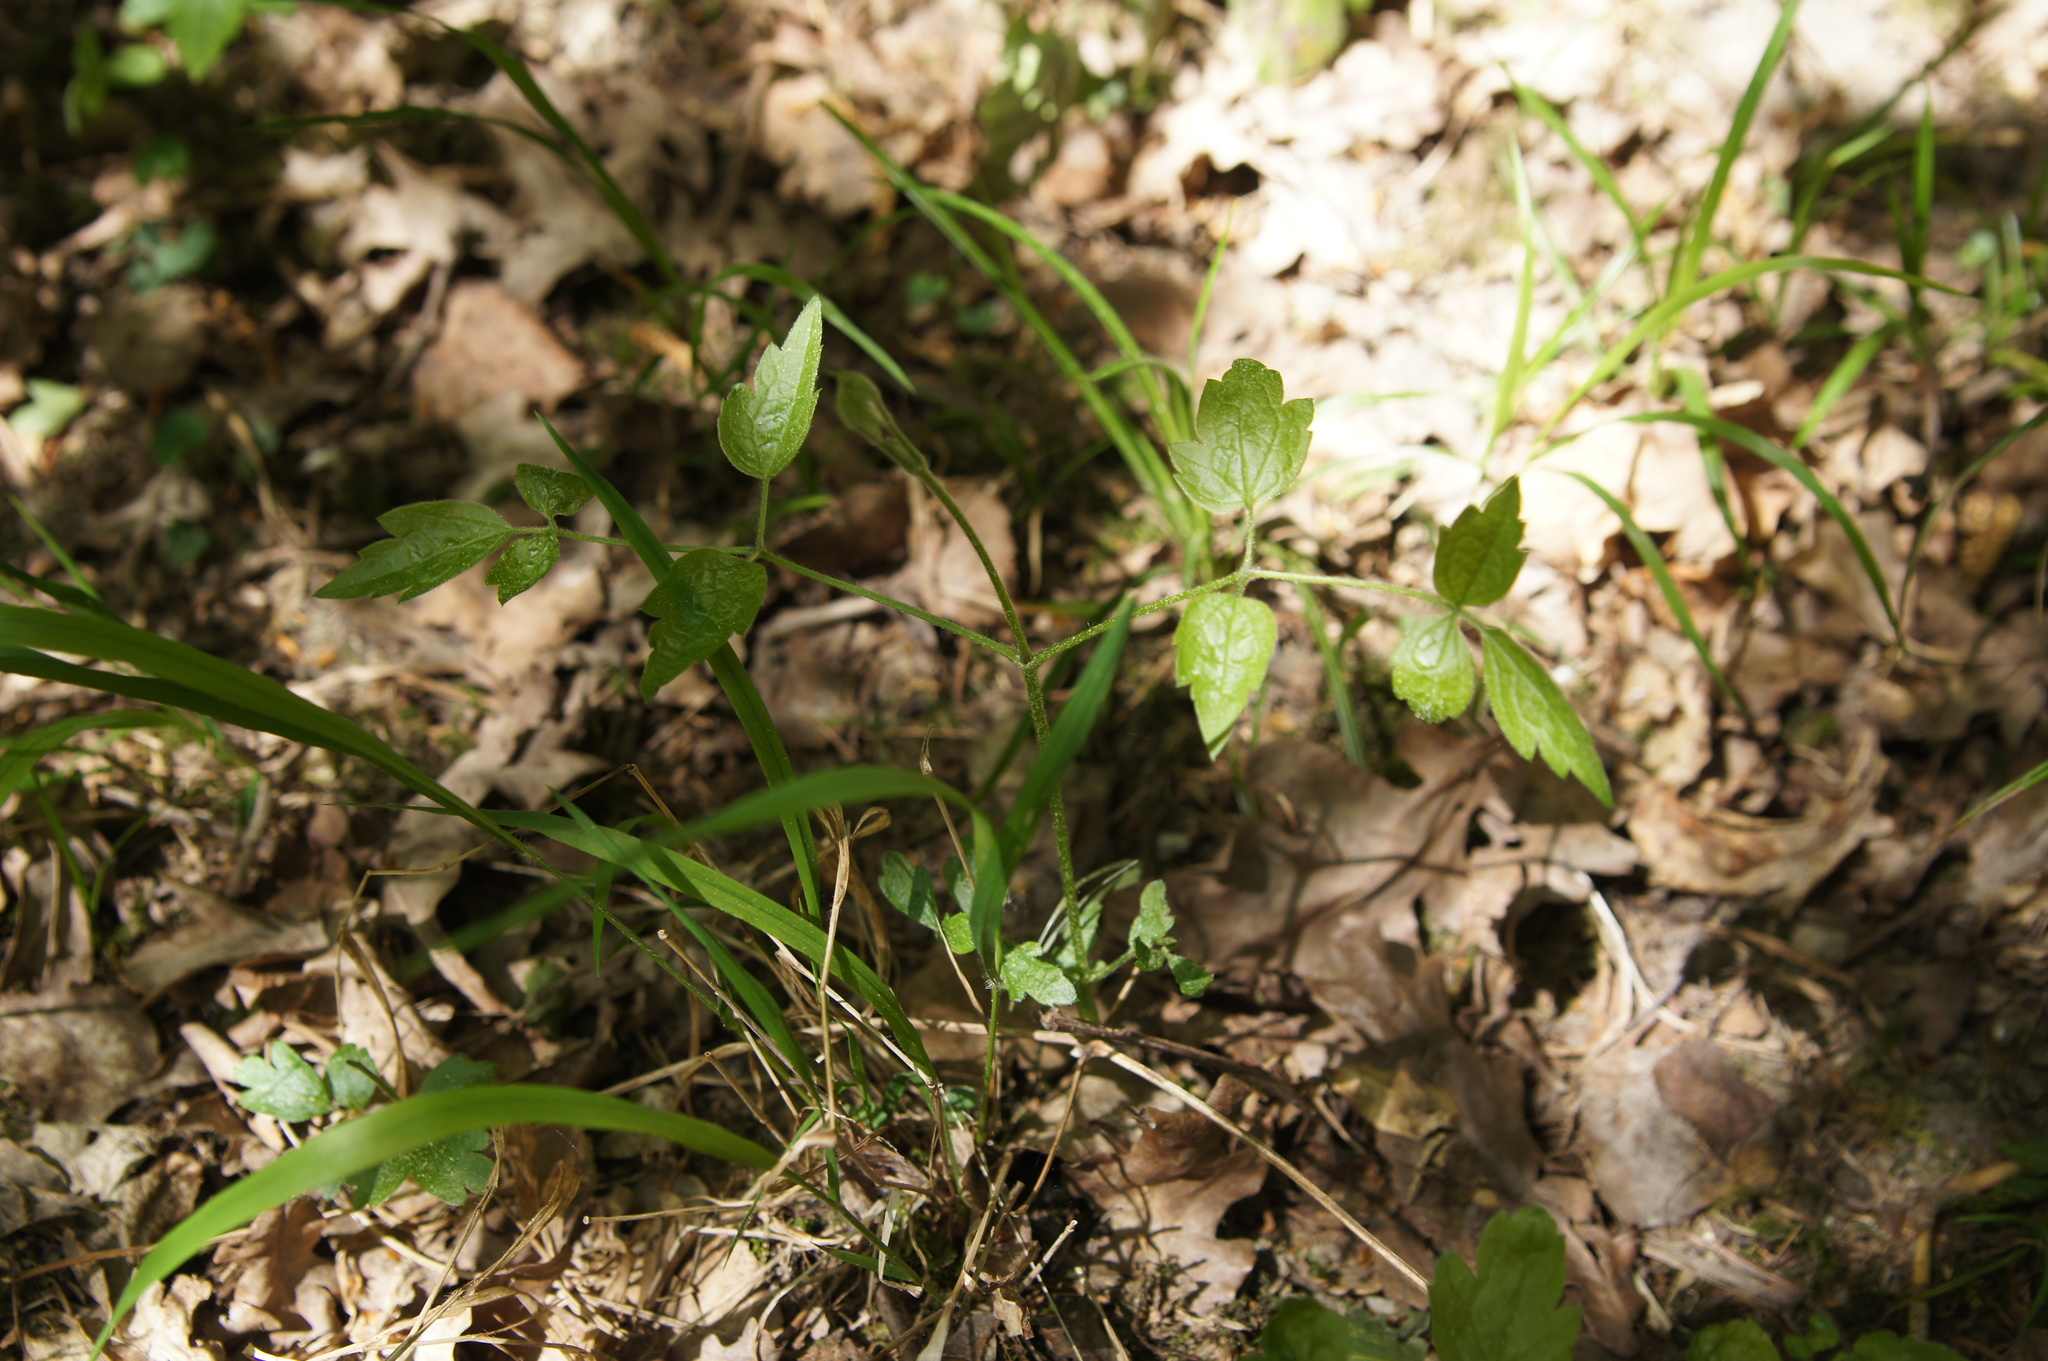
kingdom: Plantae
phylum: Tracheophyta
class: Magnoliopsida
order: Ranunculales
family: Ranunculaceae
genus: Clematis
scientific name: Clematis vitalba
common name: Evergreen clematis
